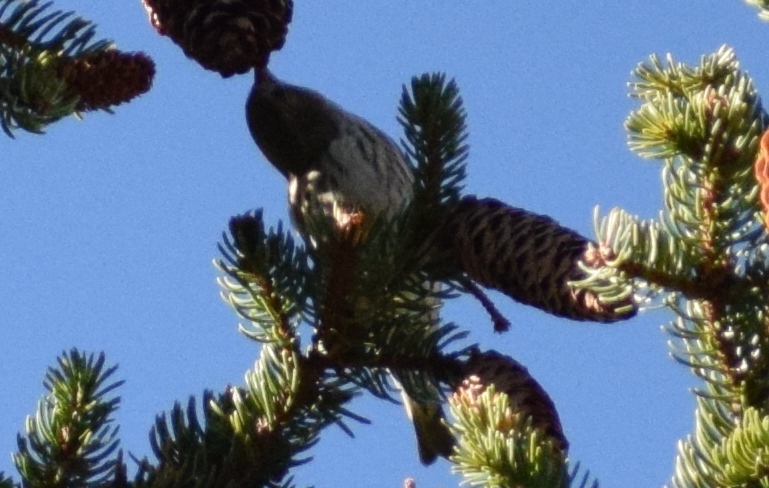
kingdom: Animalia
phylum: Chordata
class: Aves
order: Passeriformes
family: Fringillidae
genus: Spinus
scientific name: Spinus spinus
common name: Eurasian siskin
